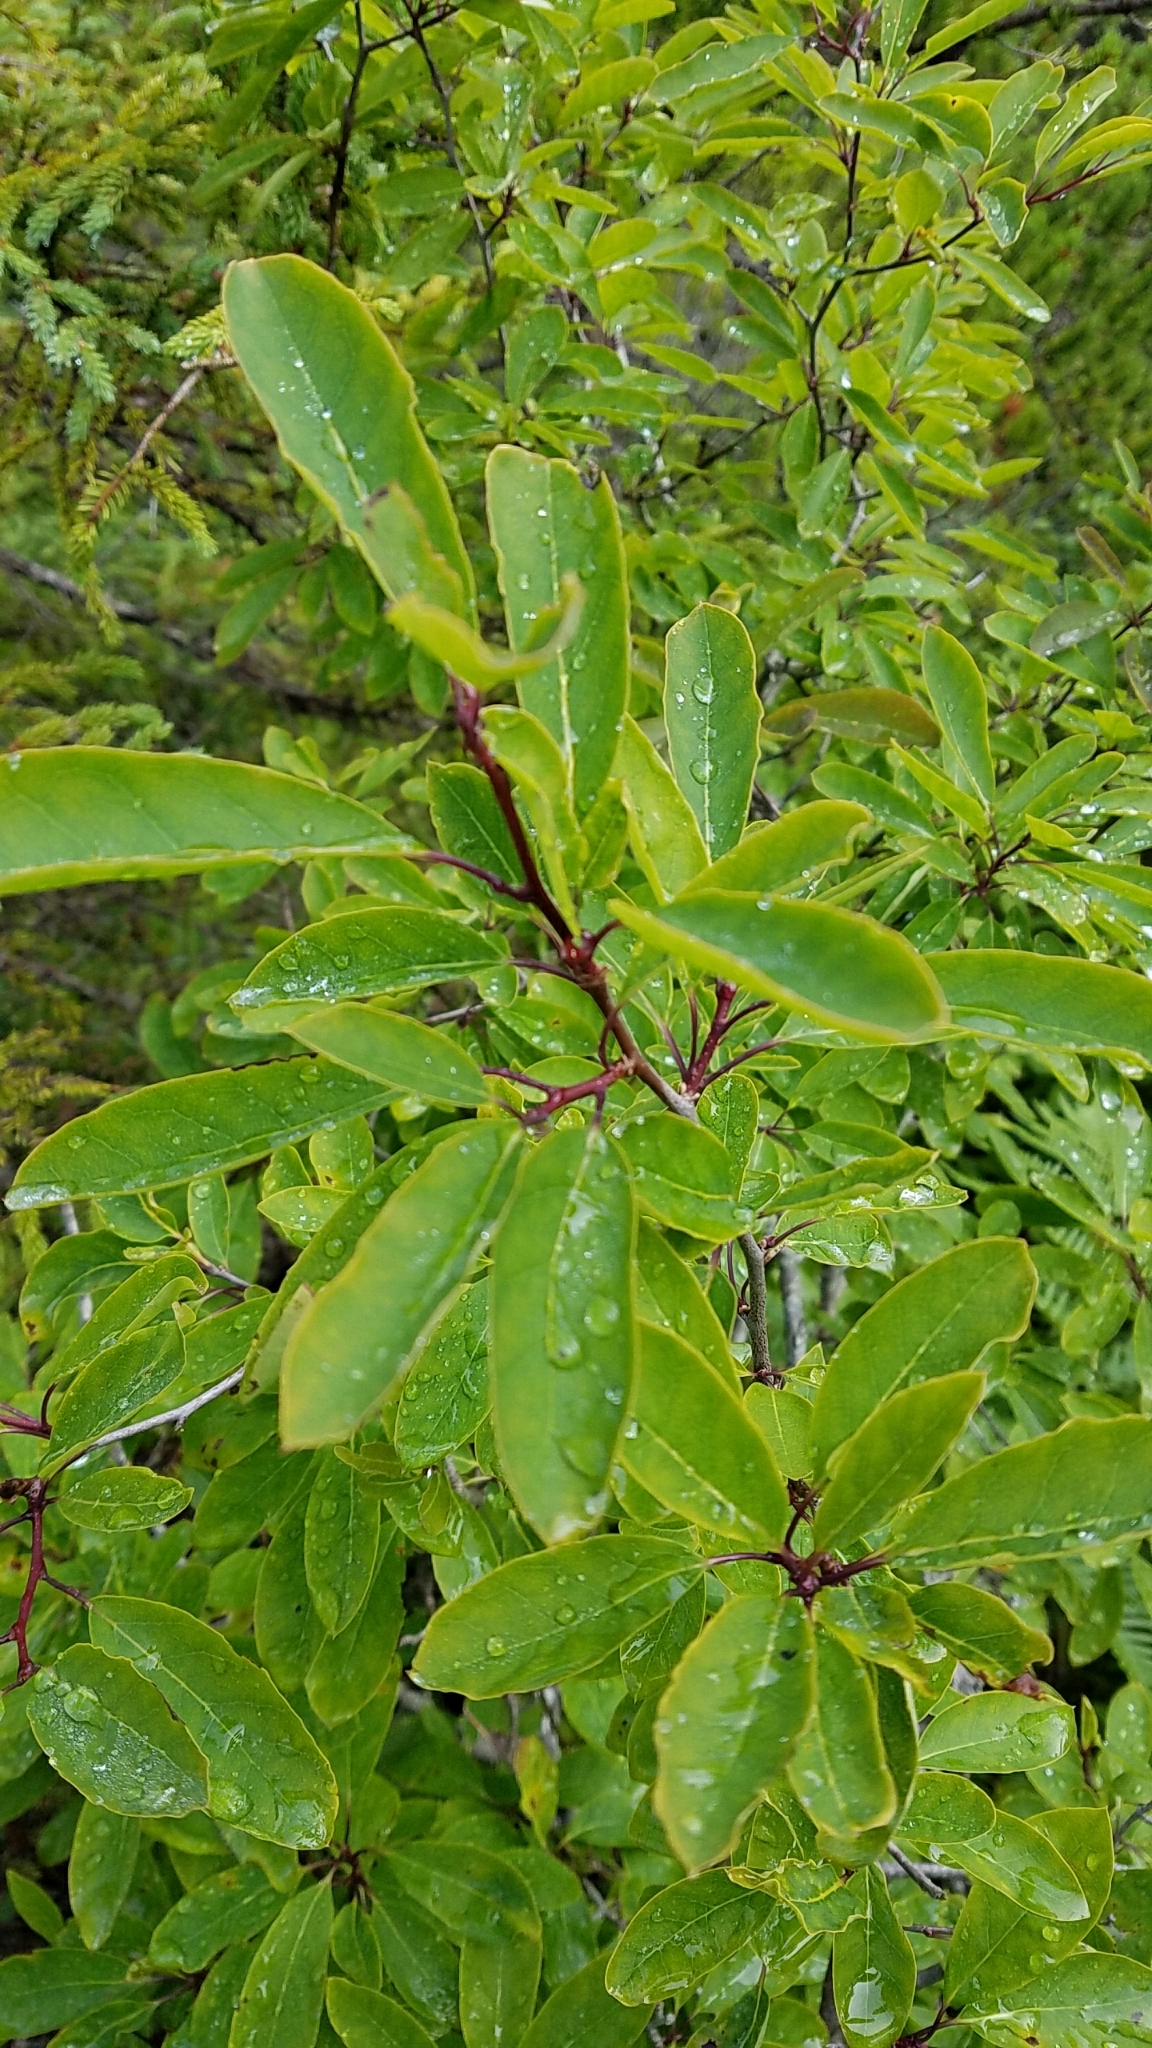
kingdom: Plantae
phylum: Tracheophyta
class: Magnoliopsida
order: Aquifoliales
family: Aquifoliaceae
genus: Ilex
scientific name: Ilex mucronata
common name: Catberry
